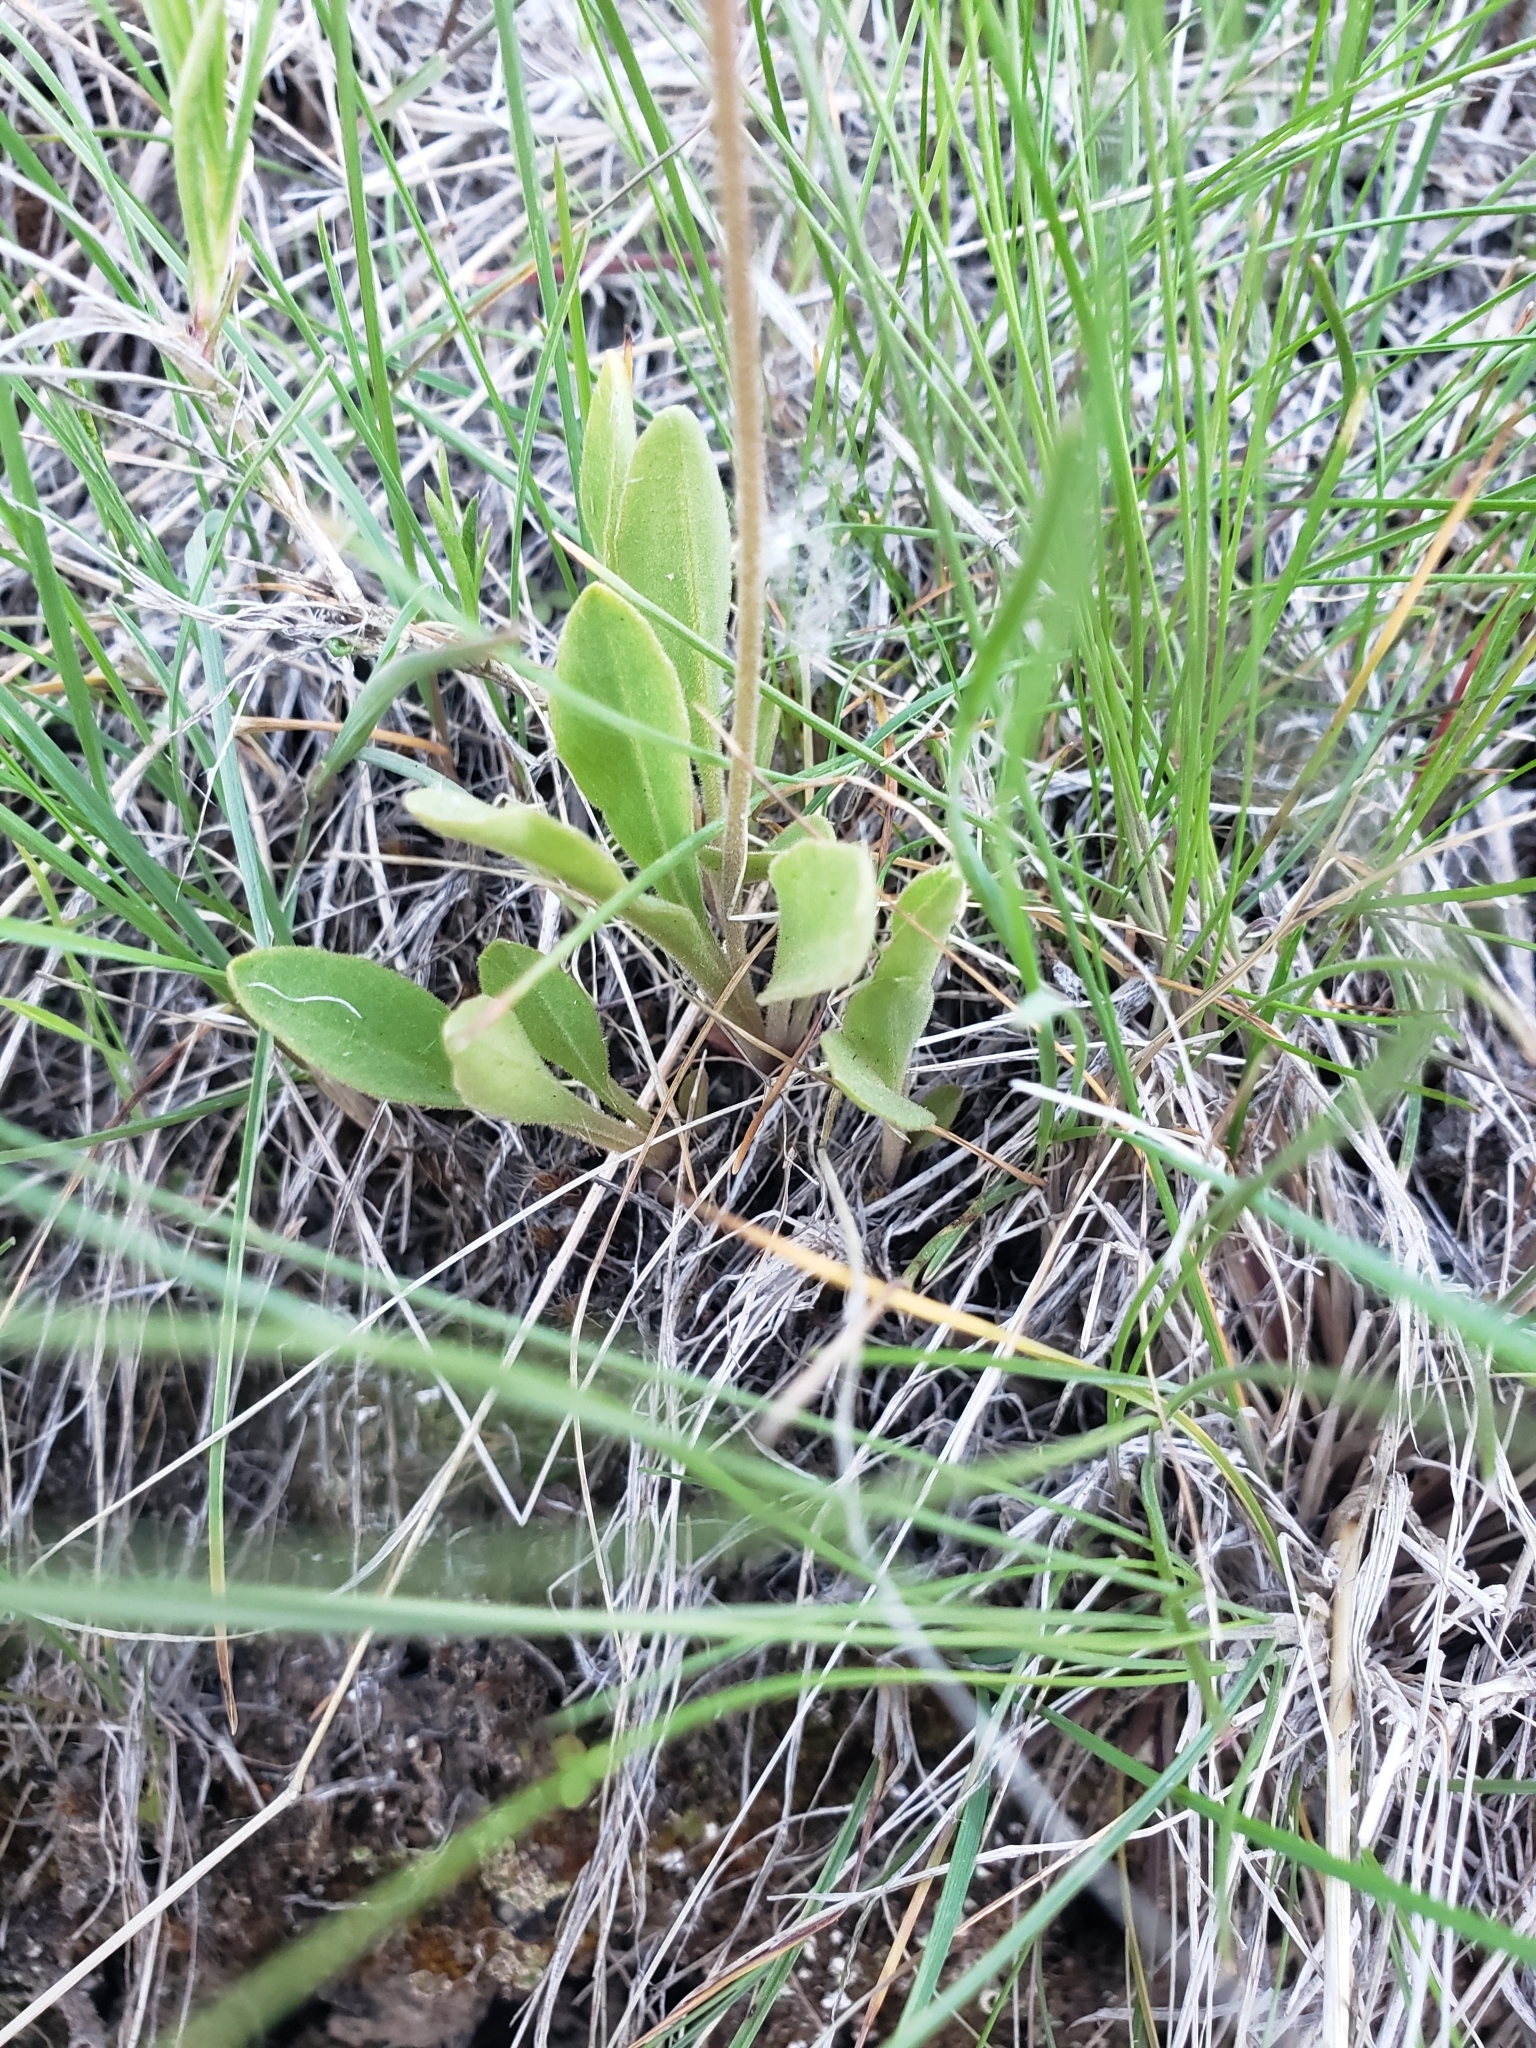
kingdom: Plantae
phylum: Tracheophyta
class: Magnoliopsida
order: Ericales
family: Primulaceae
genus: Dodecatheon
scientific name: Dodecatheon pulchellum
